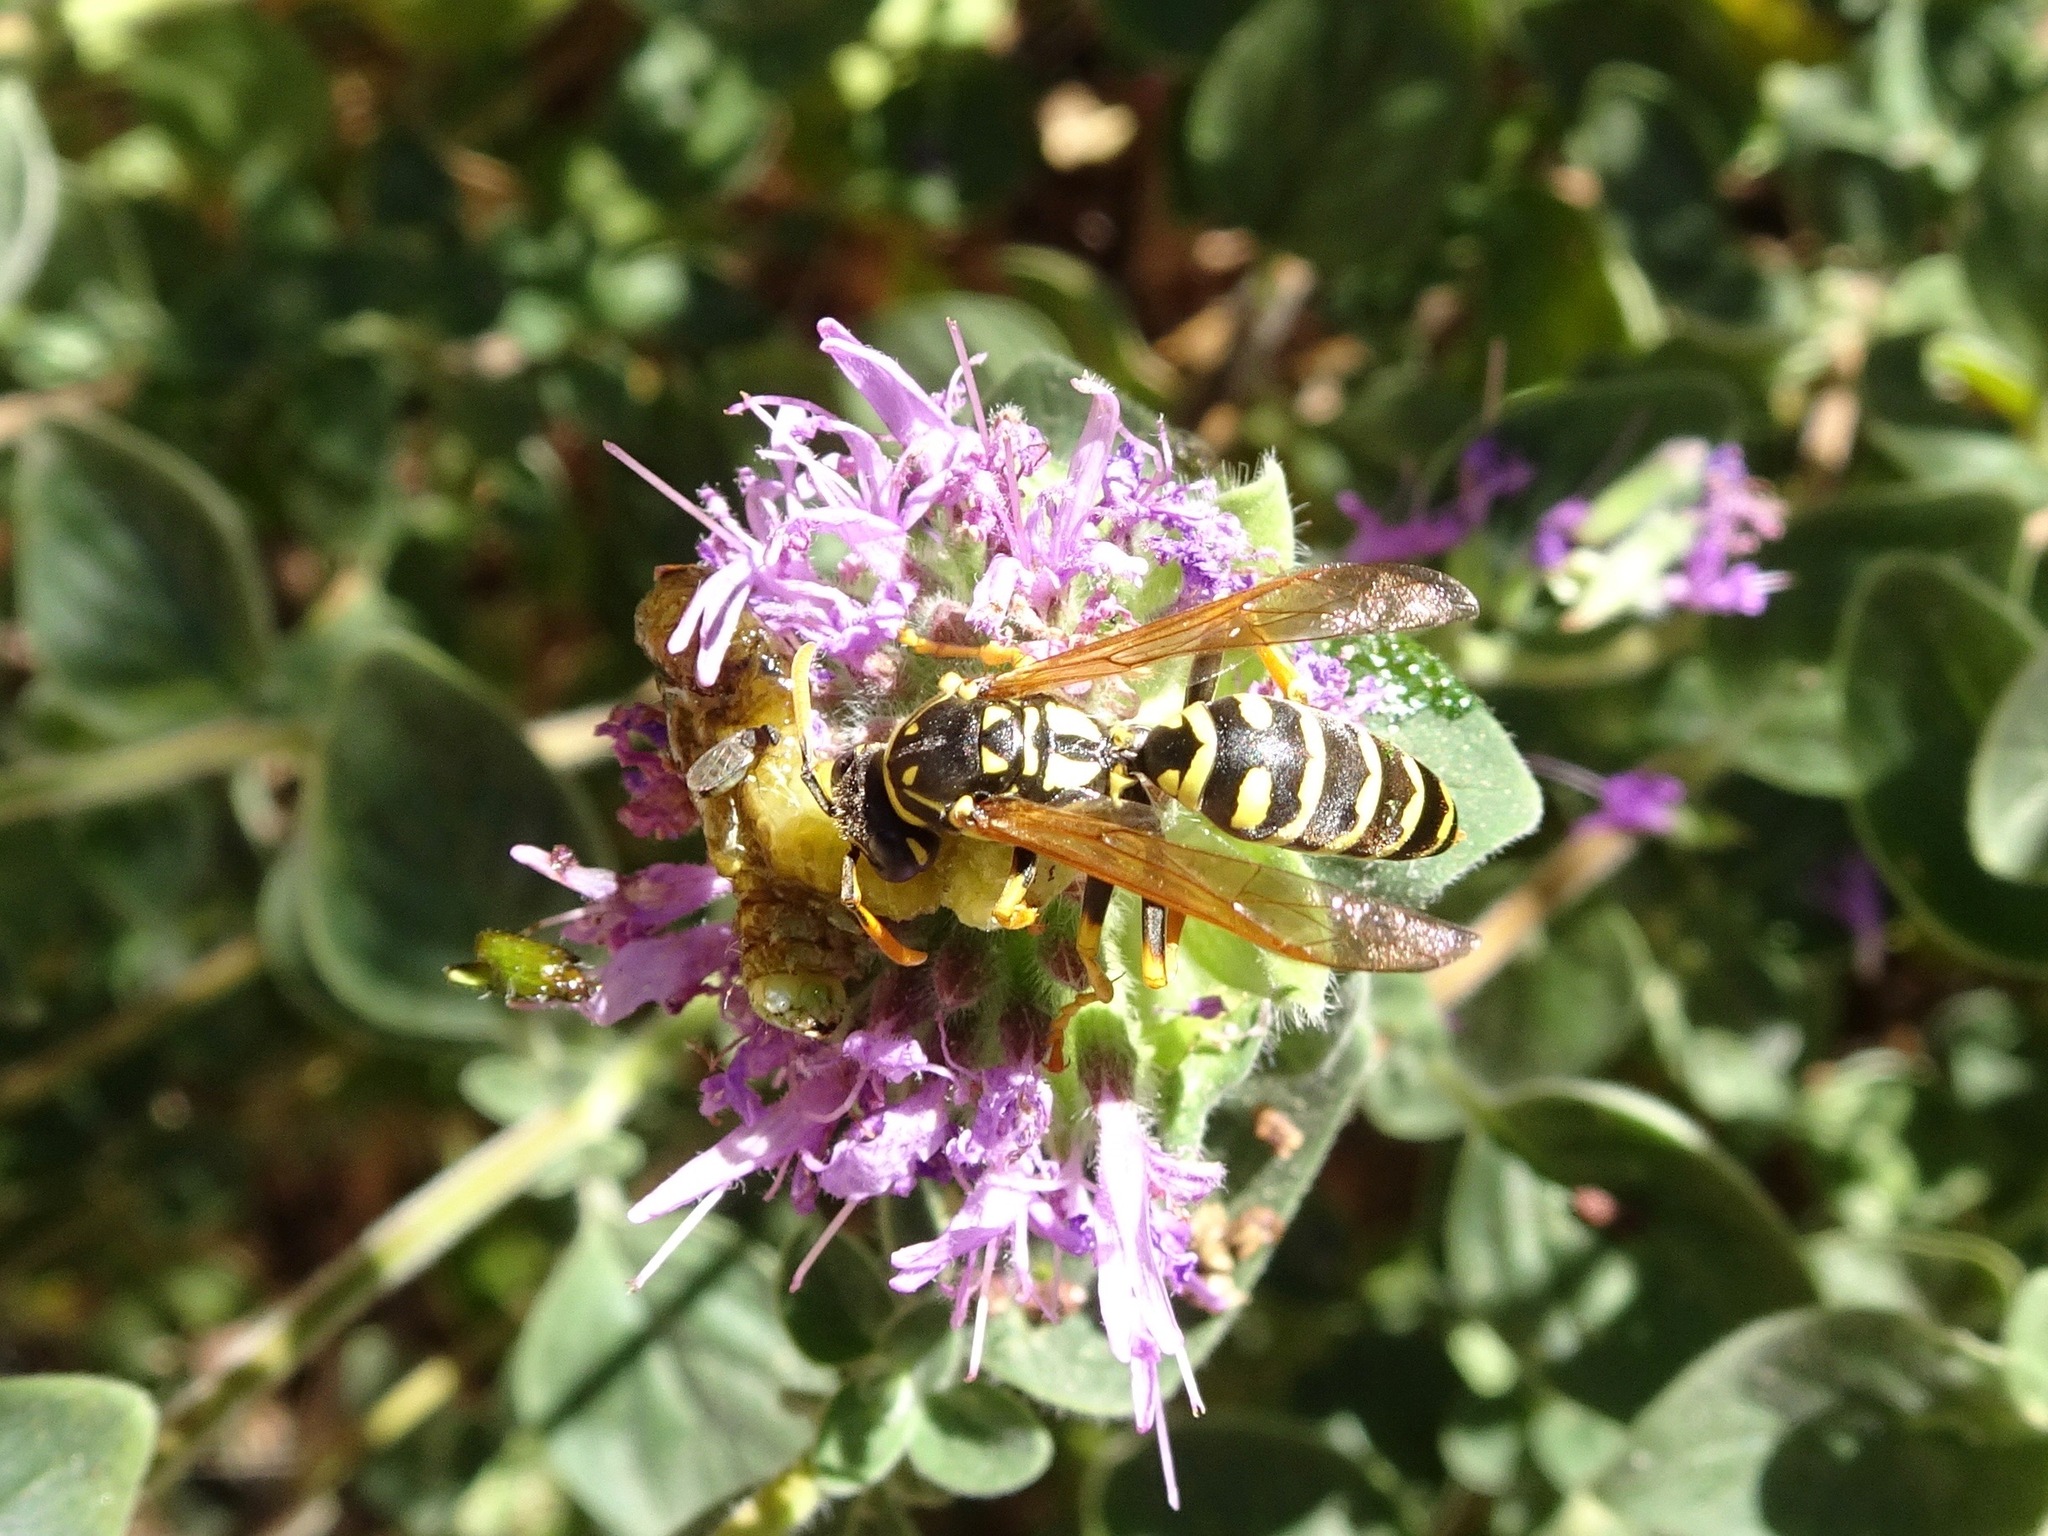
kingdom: Animalia
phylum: Arthropoda
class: Insecta
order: Hymenoptera
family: Eumenidae
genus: Polistes
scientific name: Polistes dominula
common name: Paper wasp
